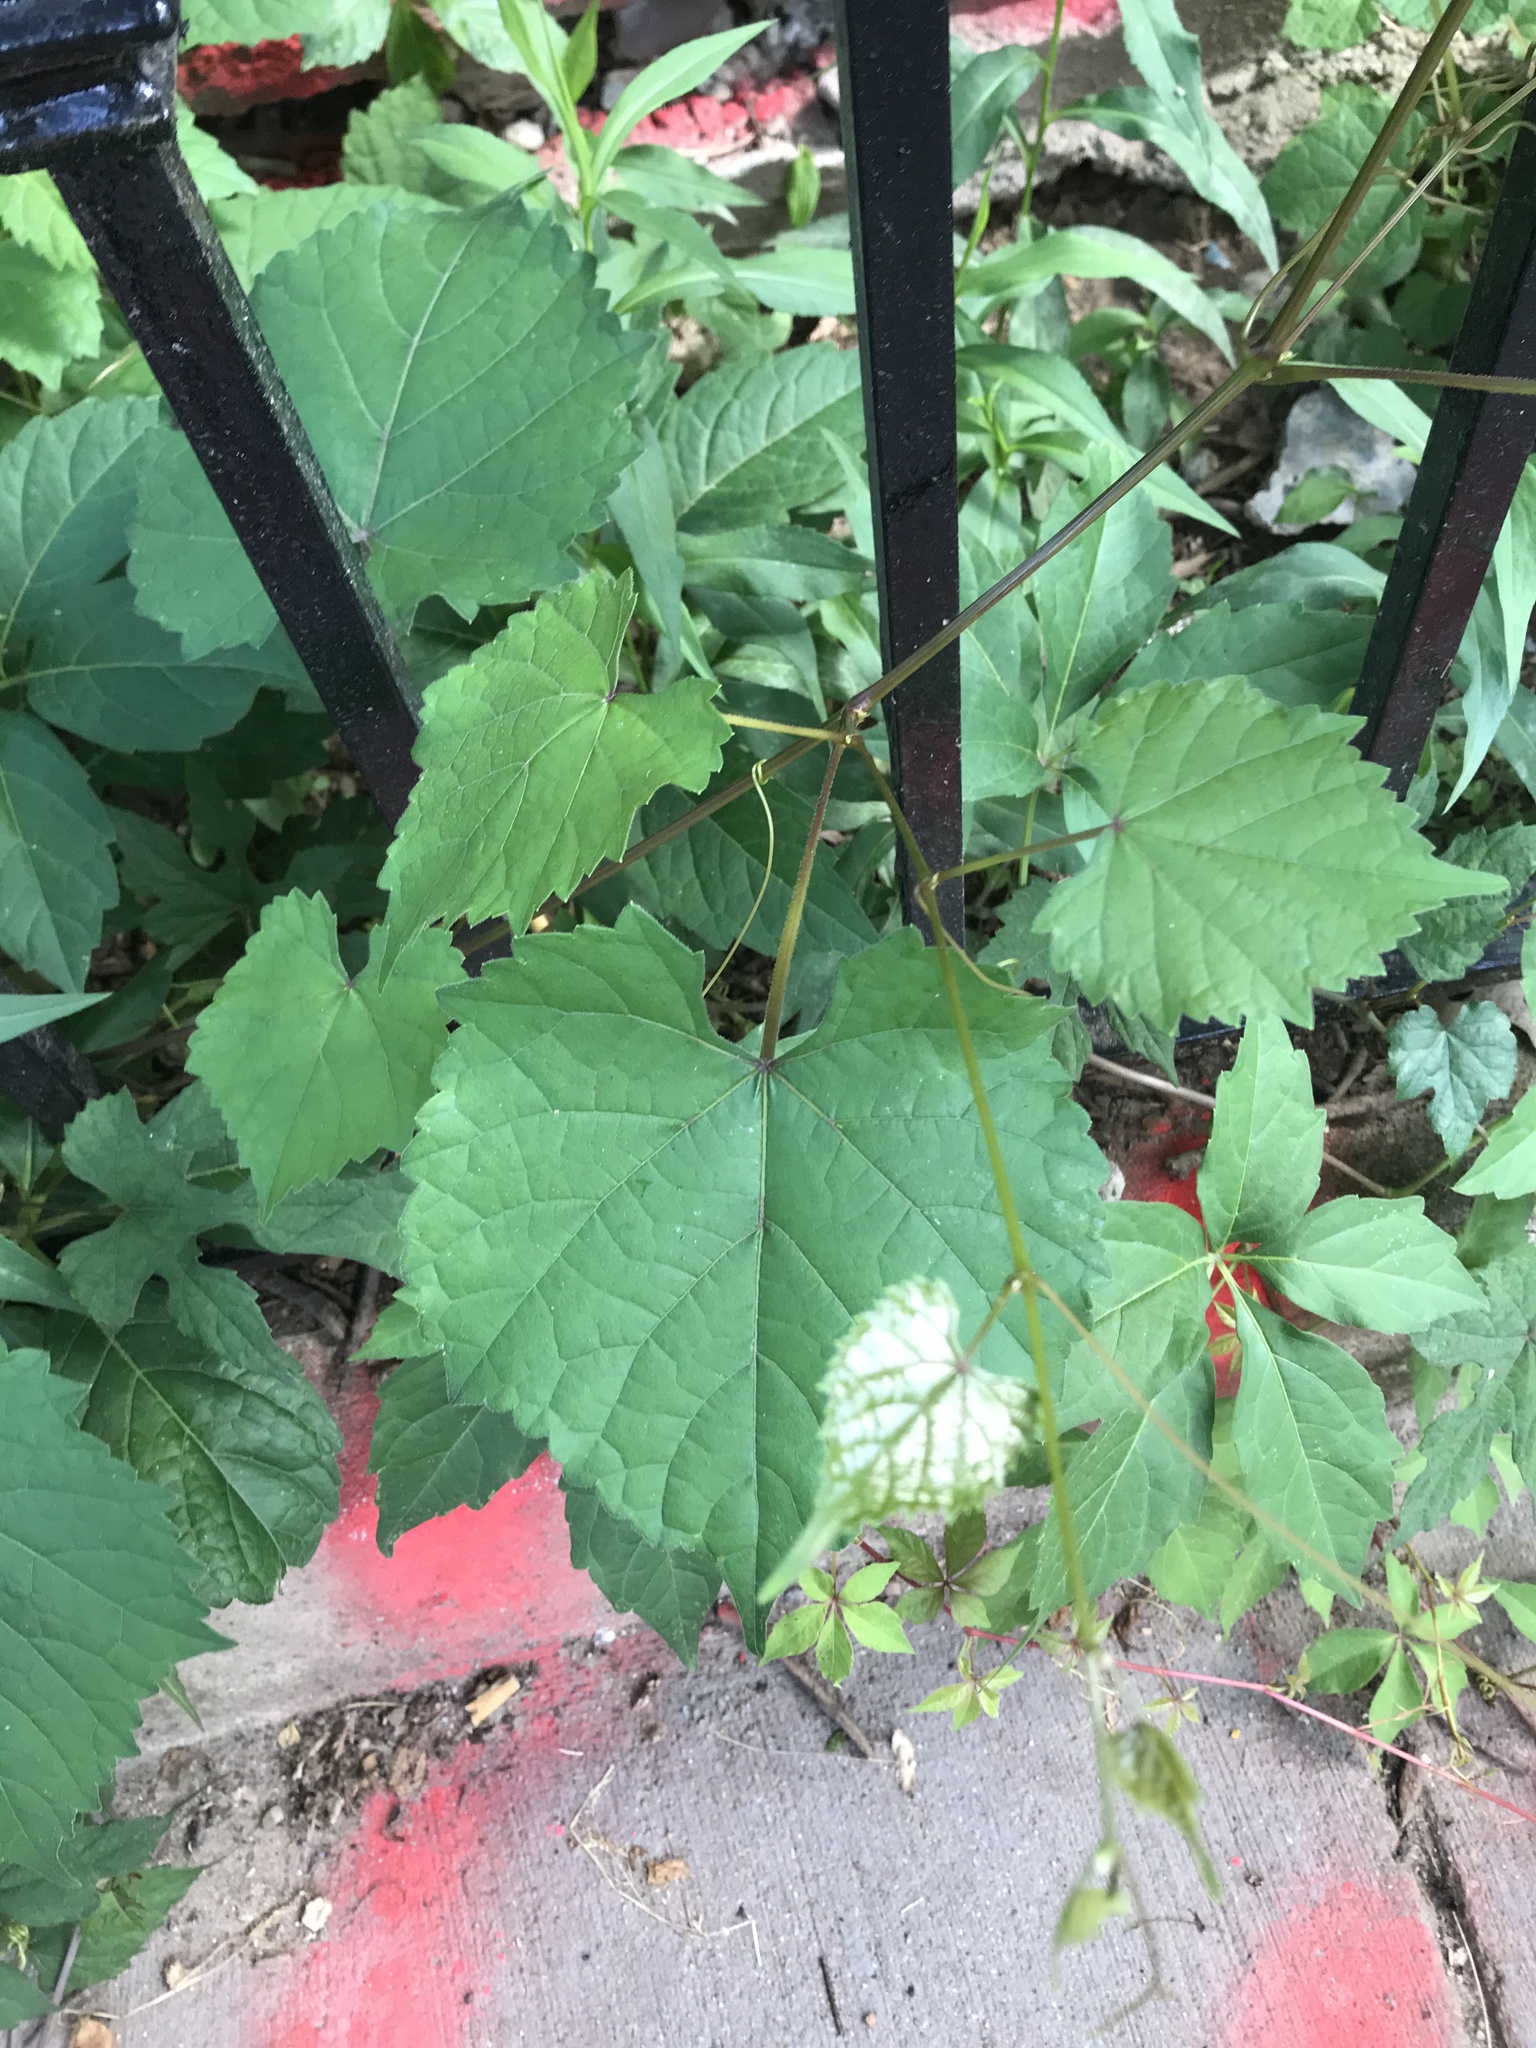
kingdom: Plantae
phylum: Tracheophyta
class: Magnoliopsida
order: Vitales
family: Vitaceae
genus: Ampelopsis
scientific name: Ampelopsis glandulosa
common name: Amur peppervine
